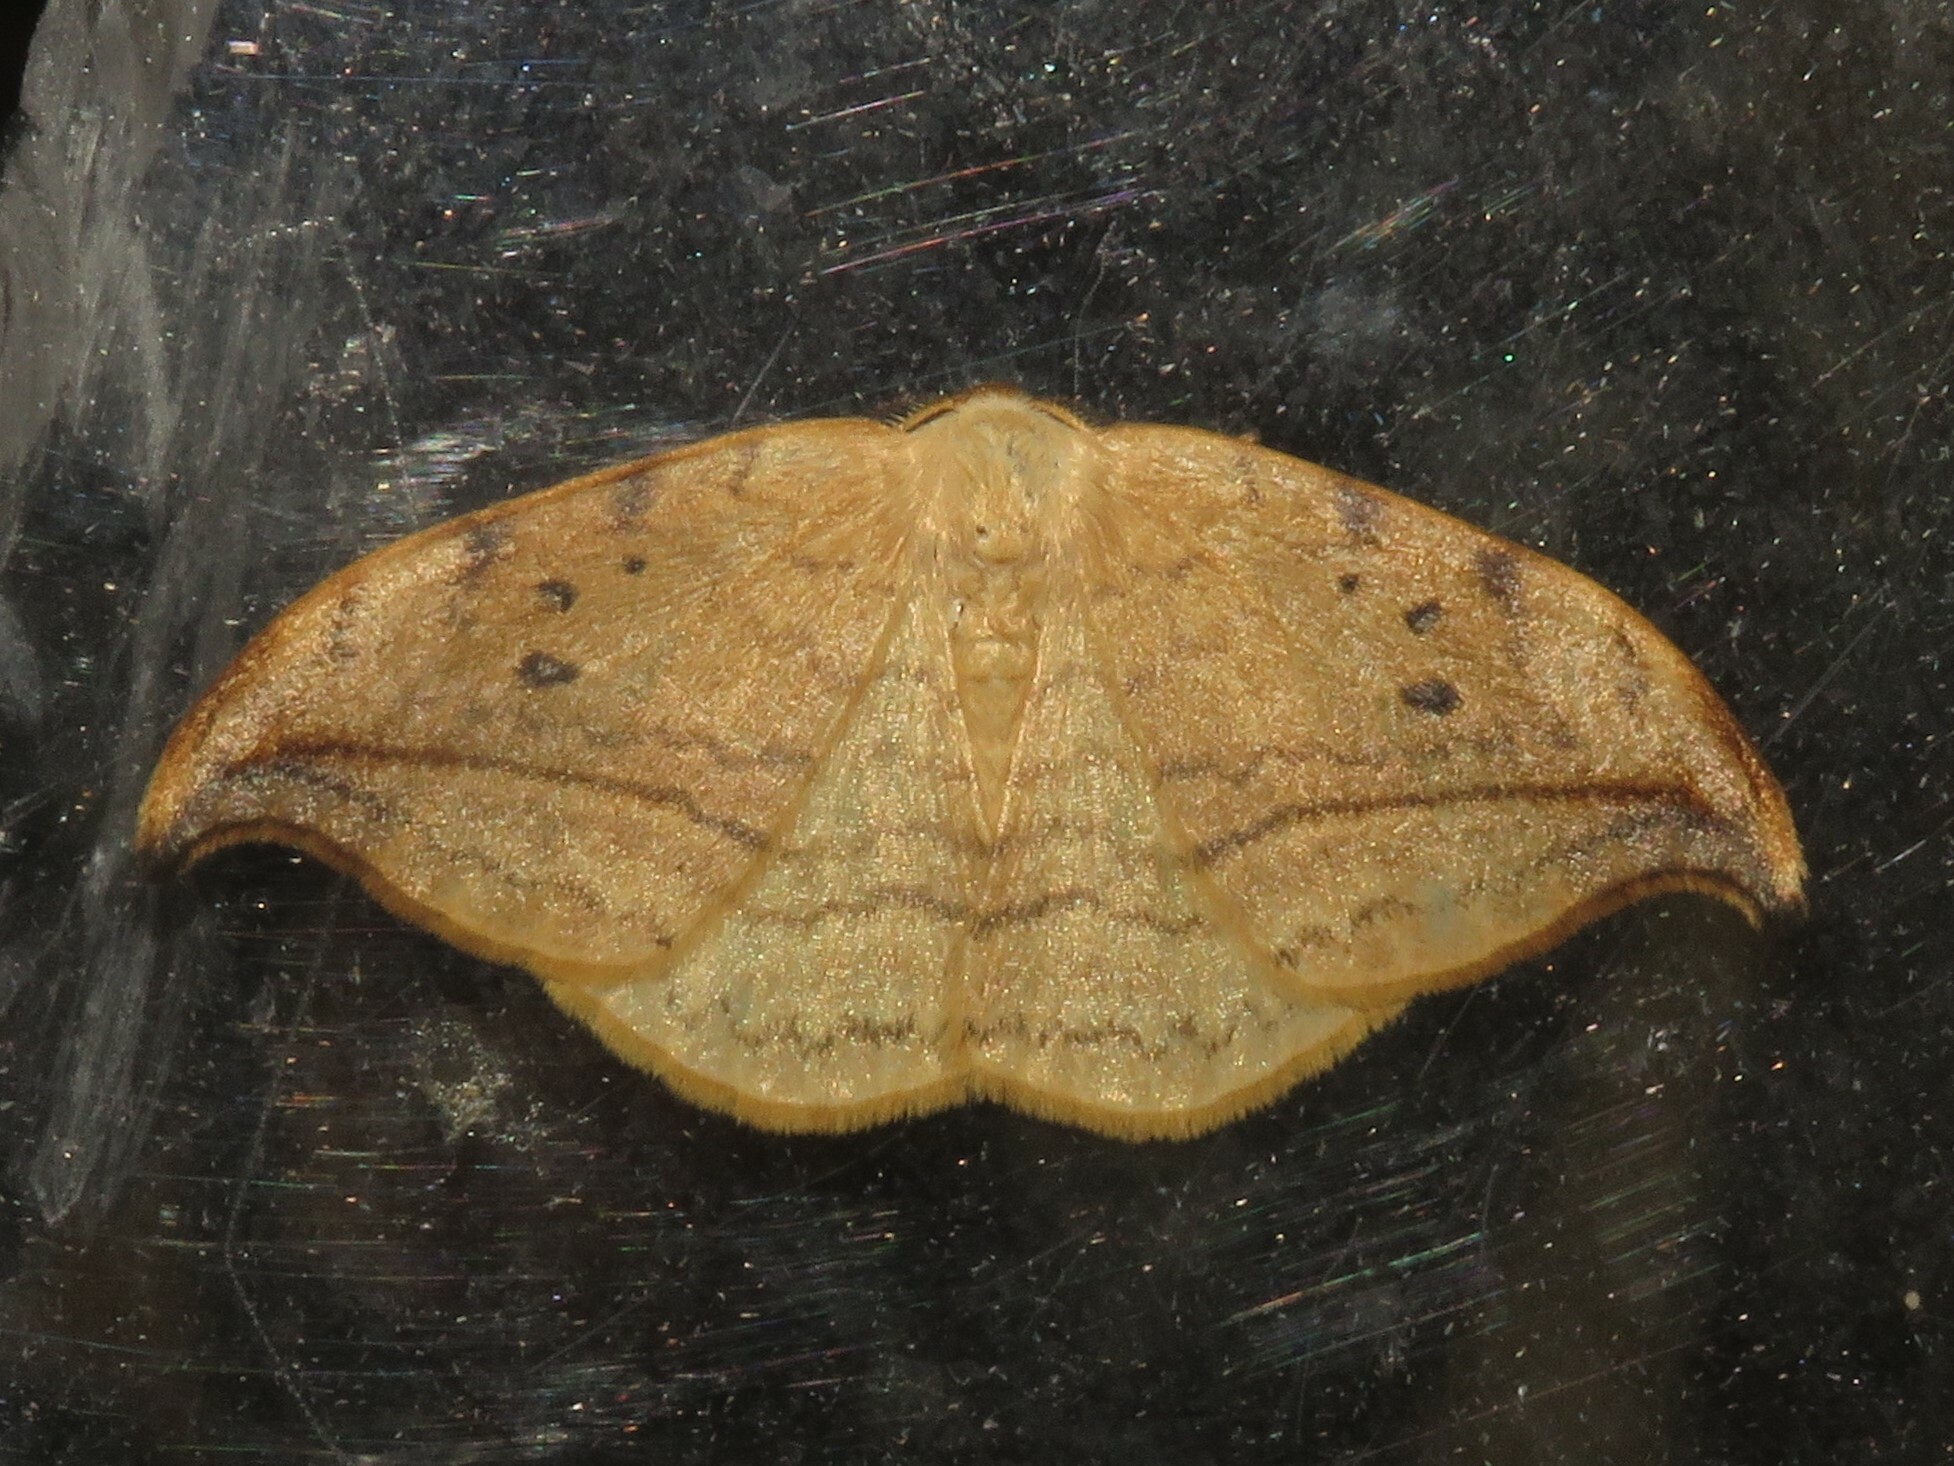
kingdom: Animalia
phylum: Arthropoda
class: Insecta
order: Lepidoptera
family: Drepanidae
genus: Drepana
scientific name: Drepana arcuata
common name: Arched hooktip moth
